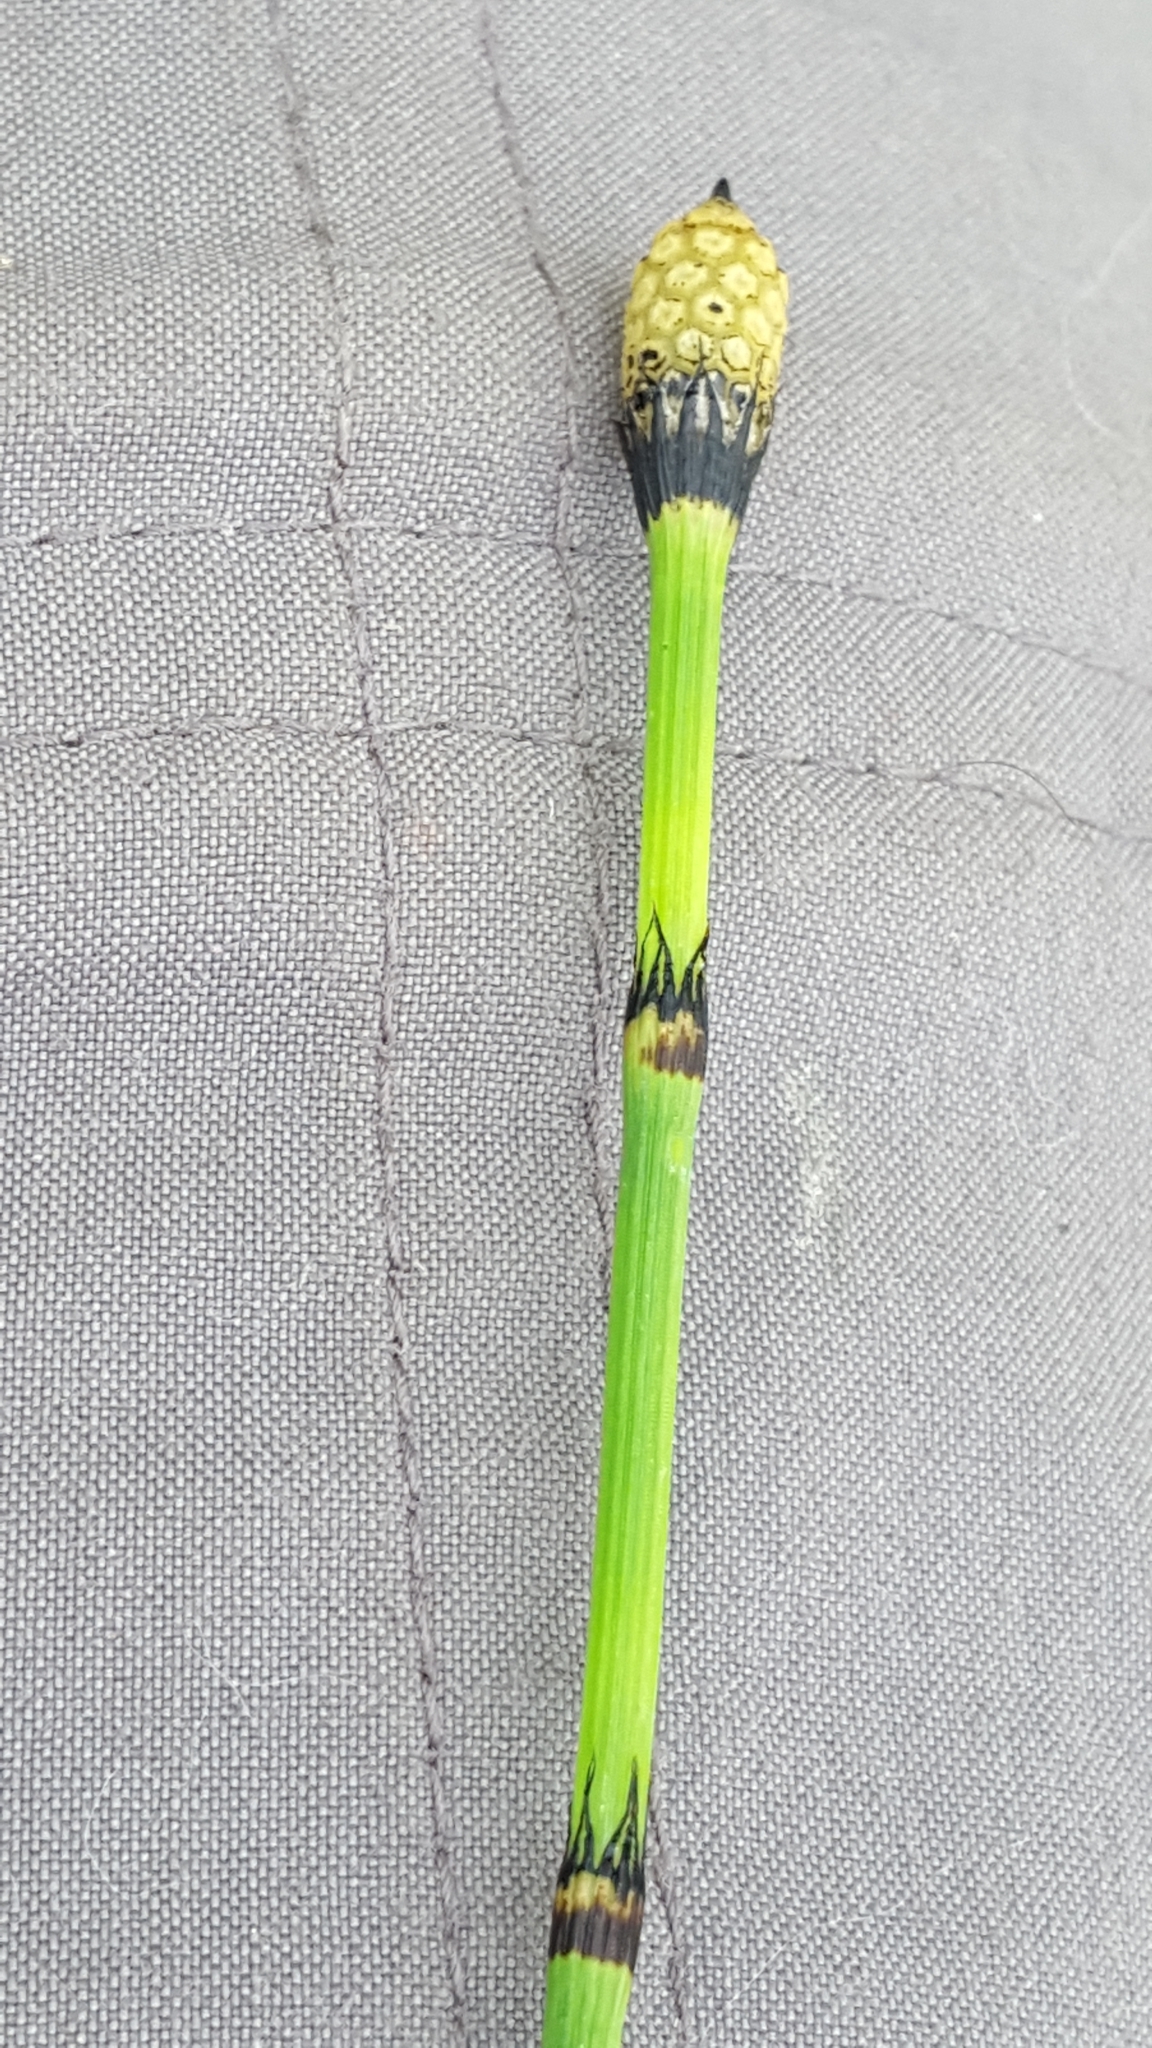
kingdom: Plantae
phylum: Tracheophyta
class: Polypodiopsida
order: Equisetales
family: Equisetaceae
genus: Equisetum
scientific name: Equisetum praealtum
